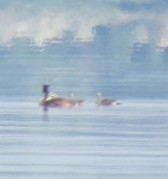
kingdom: Animalia
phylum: Chordata
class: Aves
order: Podicipediformes
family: Podicipedidae
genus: Podiceps
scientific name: Podiceps cristatus
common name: Great crested grebe
